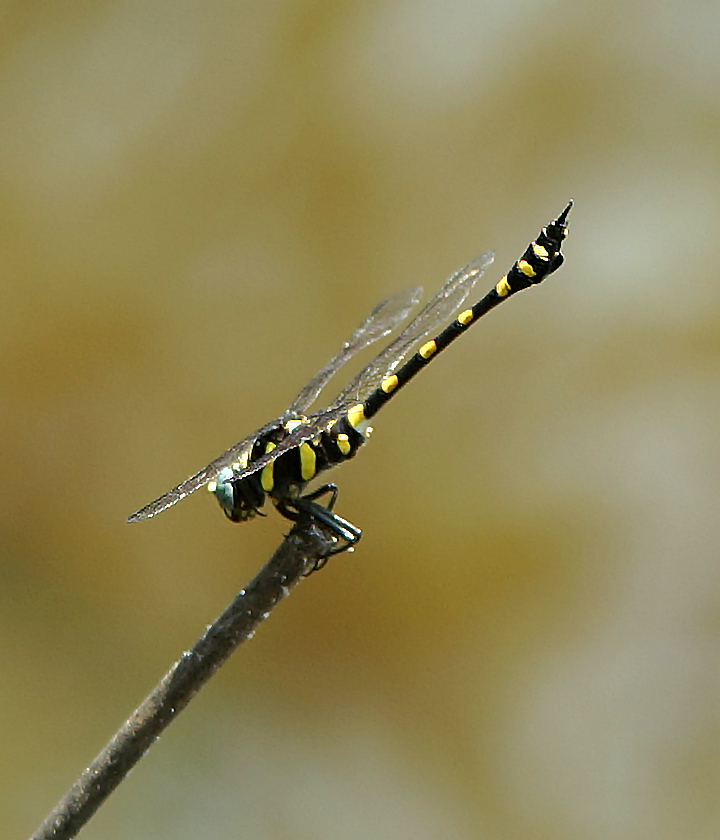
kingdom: Animalia
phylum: Arthropoda
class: Insecta
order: Odonata
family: Gomphidae
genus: Ictinogomphus
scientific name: Ictinogomphus decoratus
